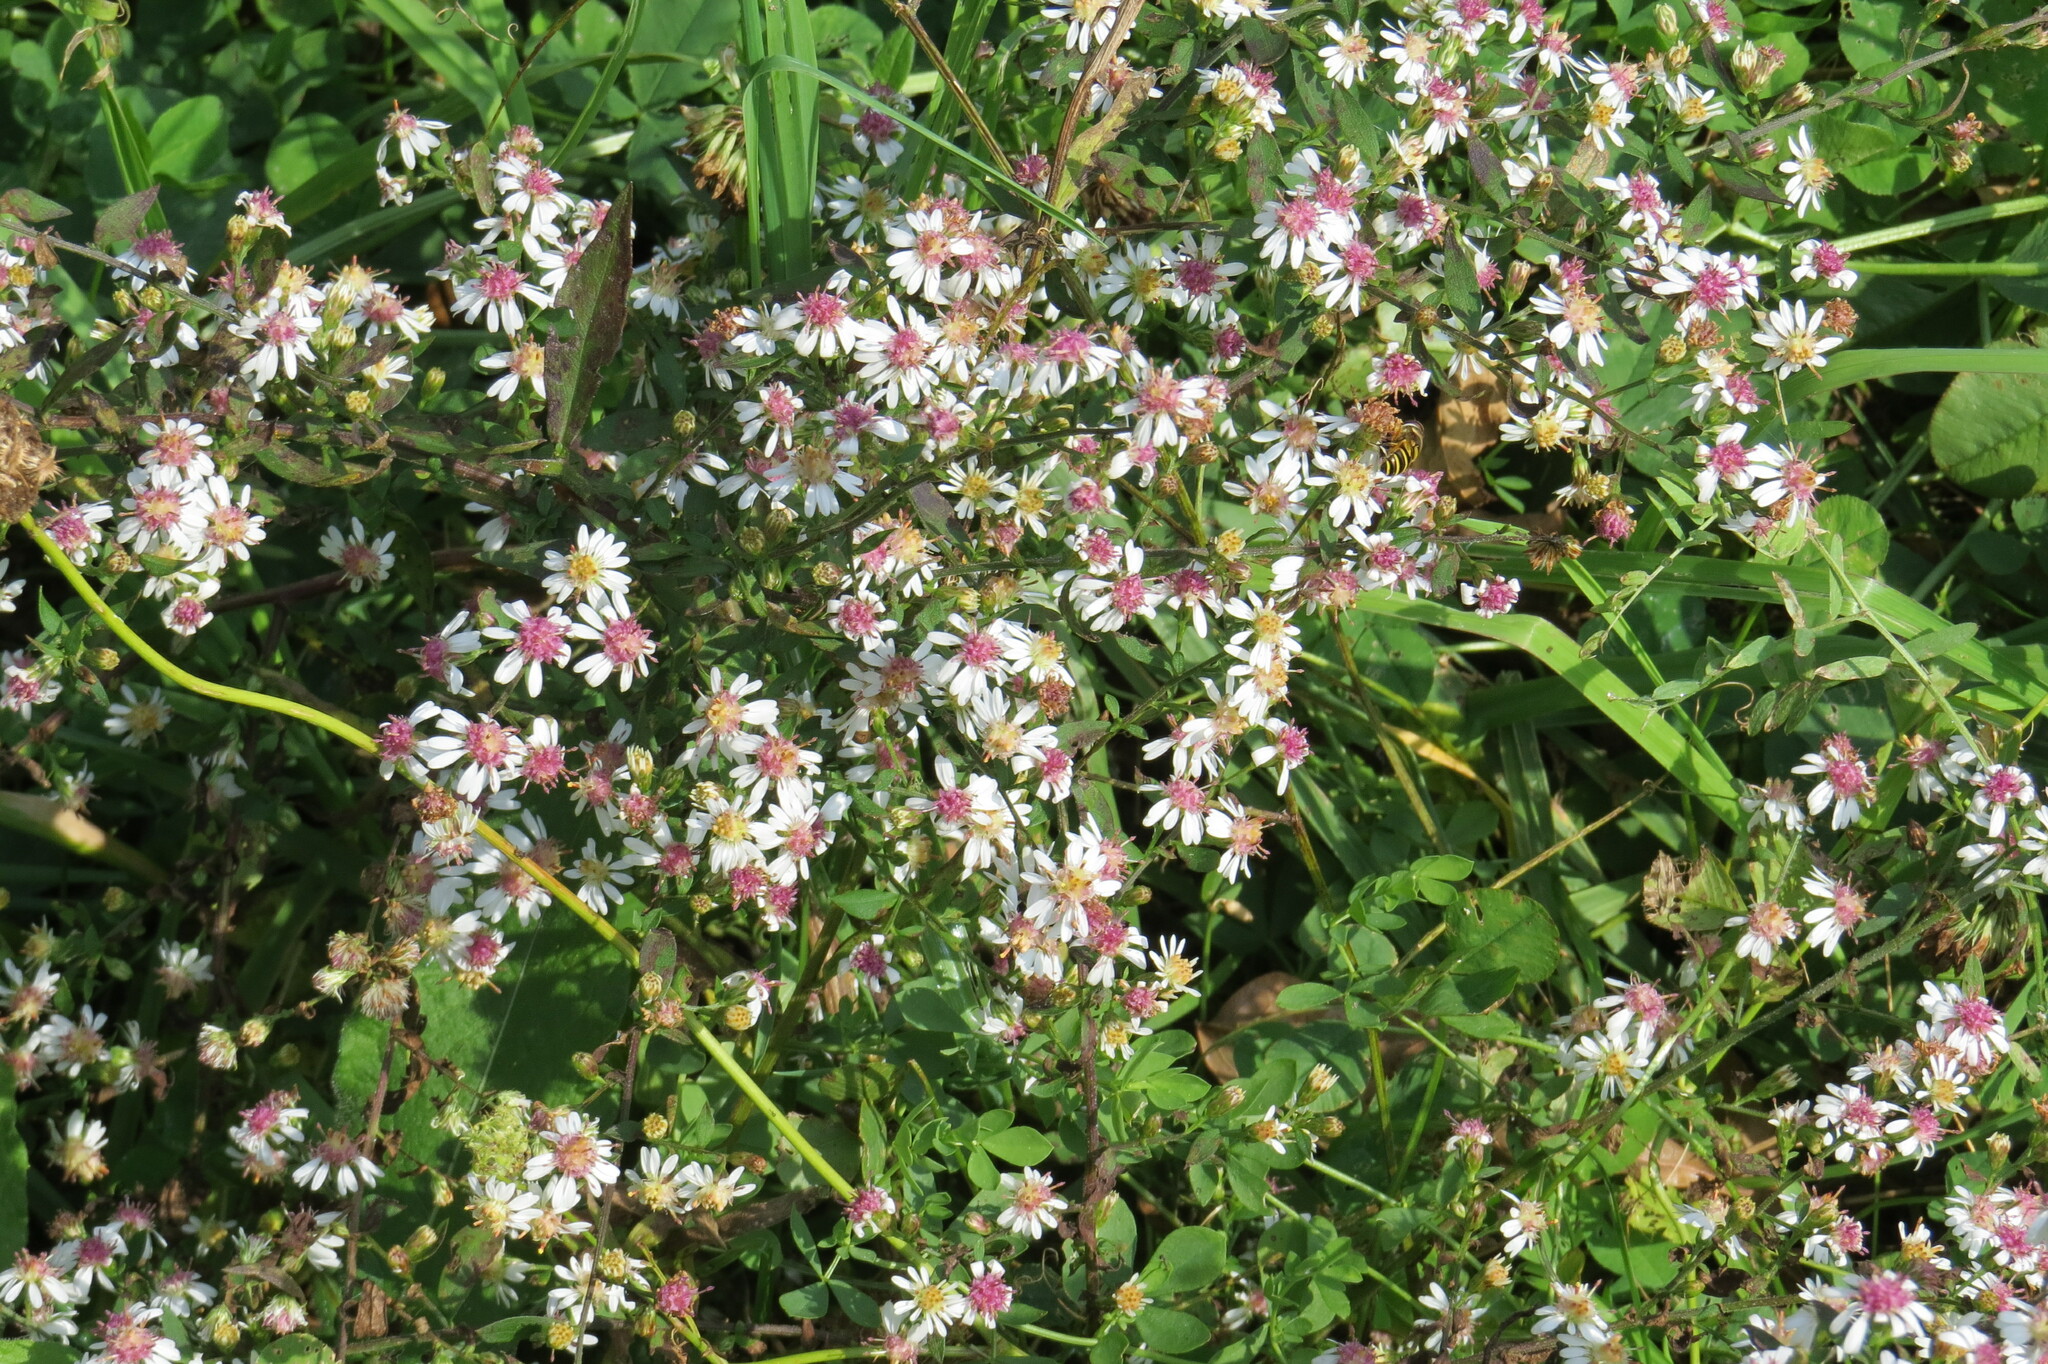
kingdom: Plantae
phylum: Tracheophyta
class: Magnoliopsida
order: Asterales
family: Asteraceae
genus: Symphyotrichum
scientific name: Symphyotrichum lateriflorum
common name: Calico aster
